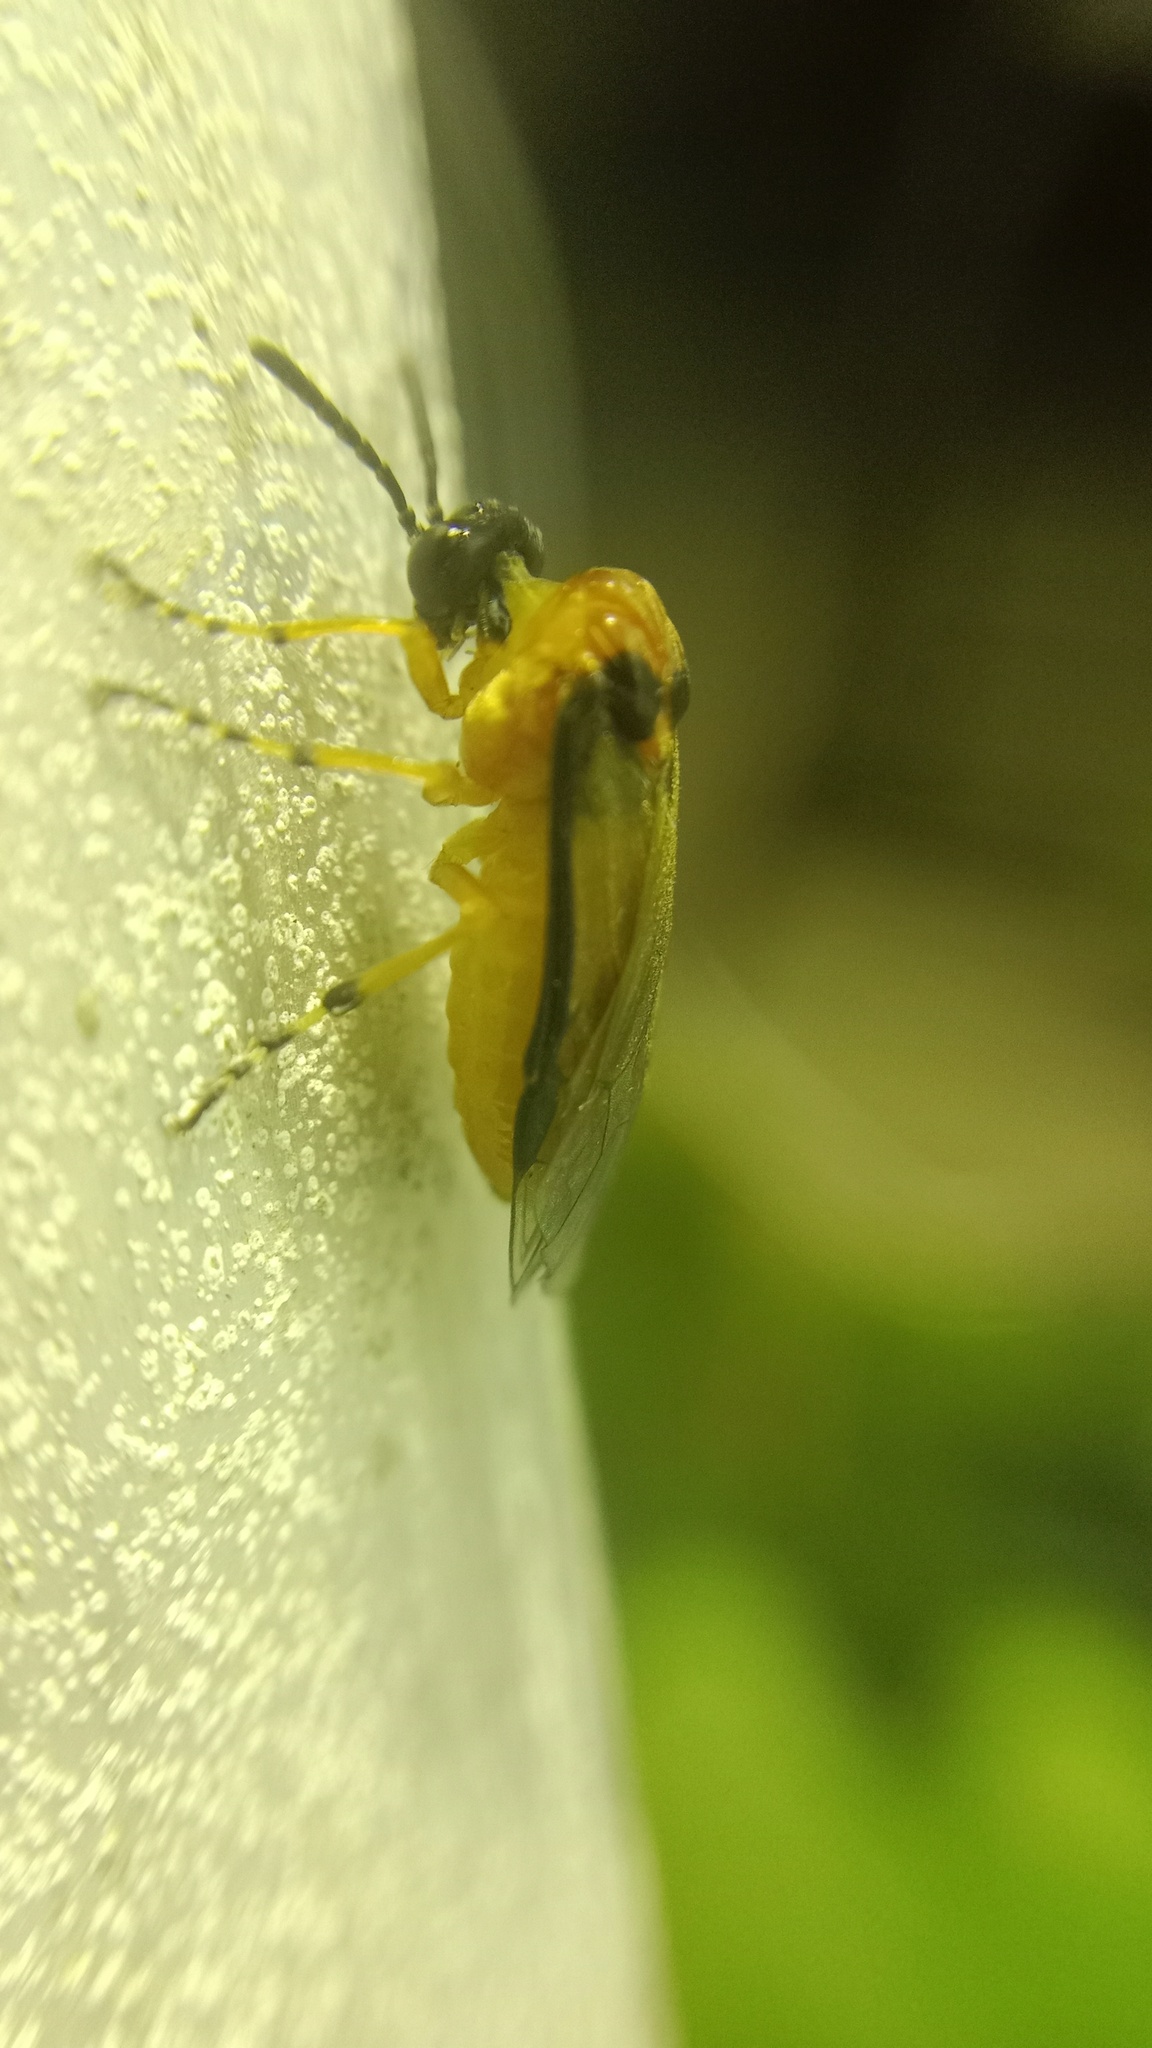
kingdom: Animalia
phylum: Arthropoda
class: Insecta
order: Hymenoptera
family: Tenthredinidae
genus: Athalia
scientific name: Athalia rosae
